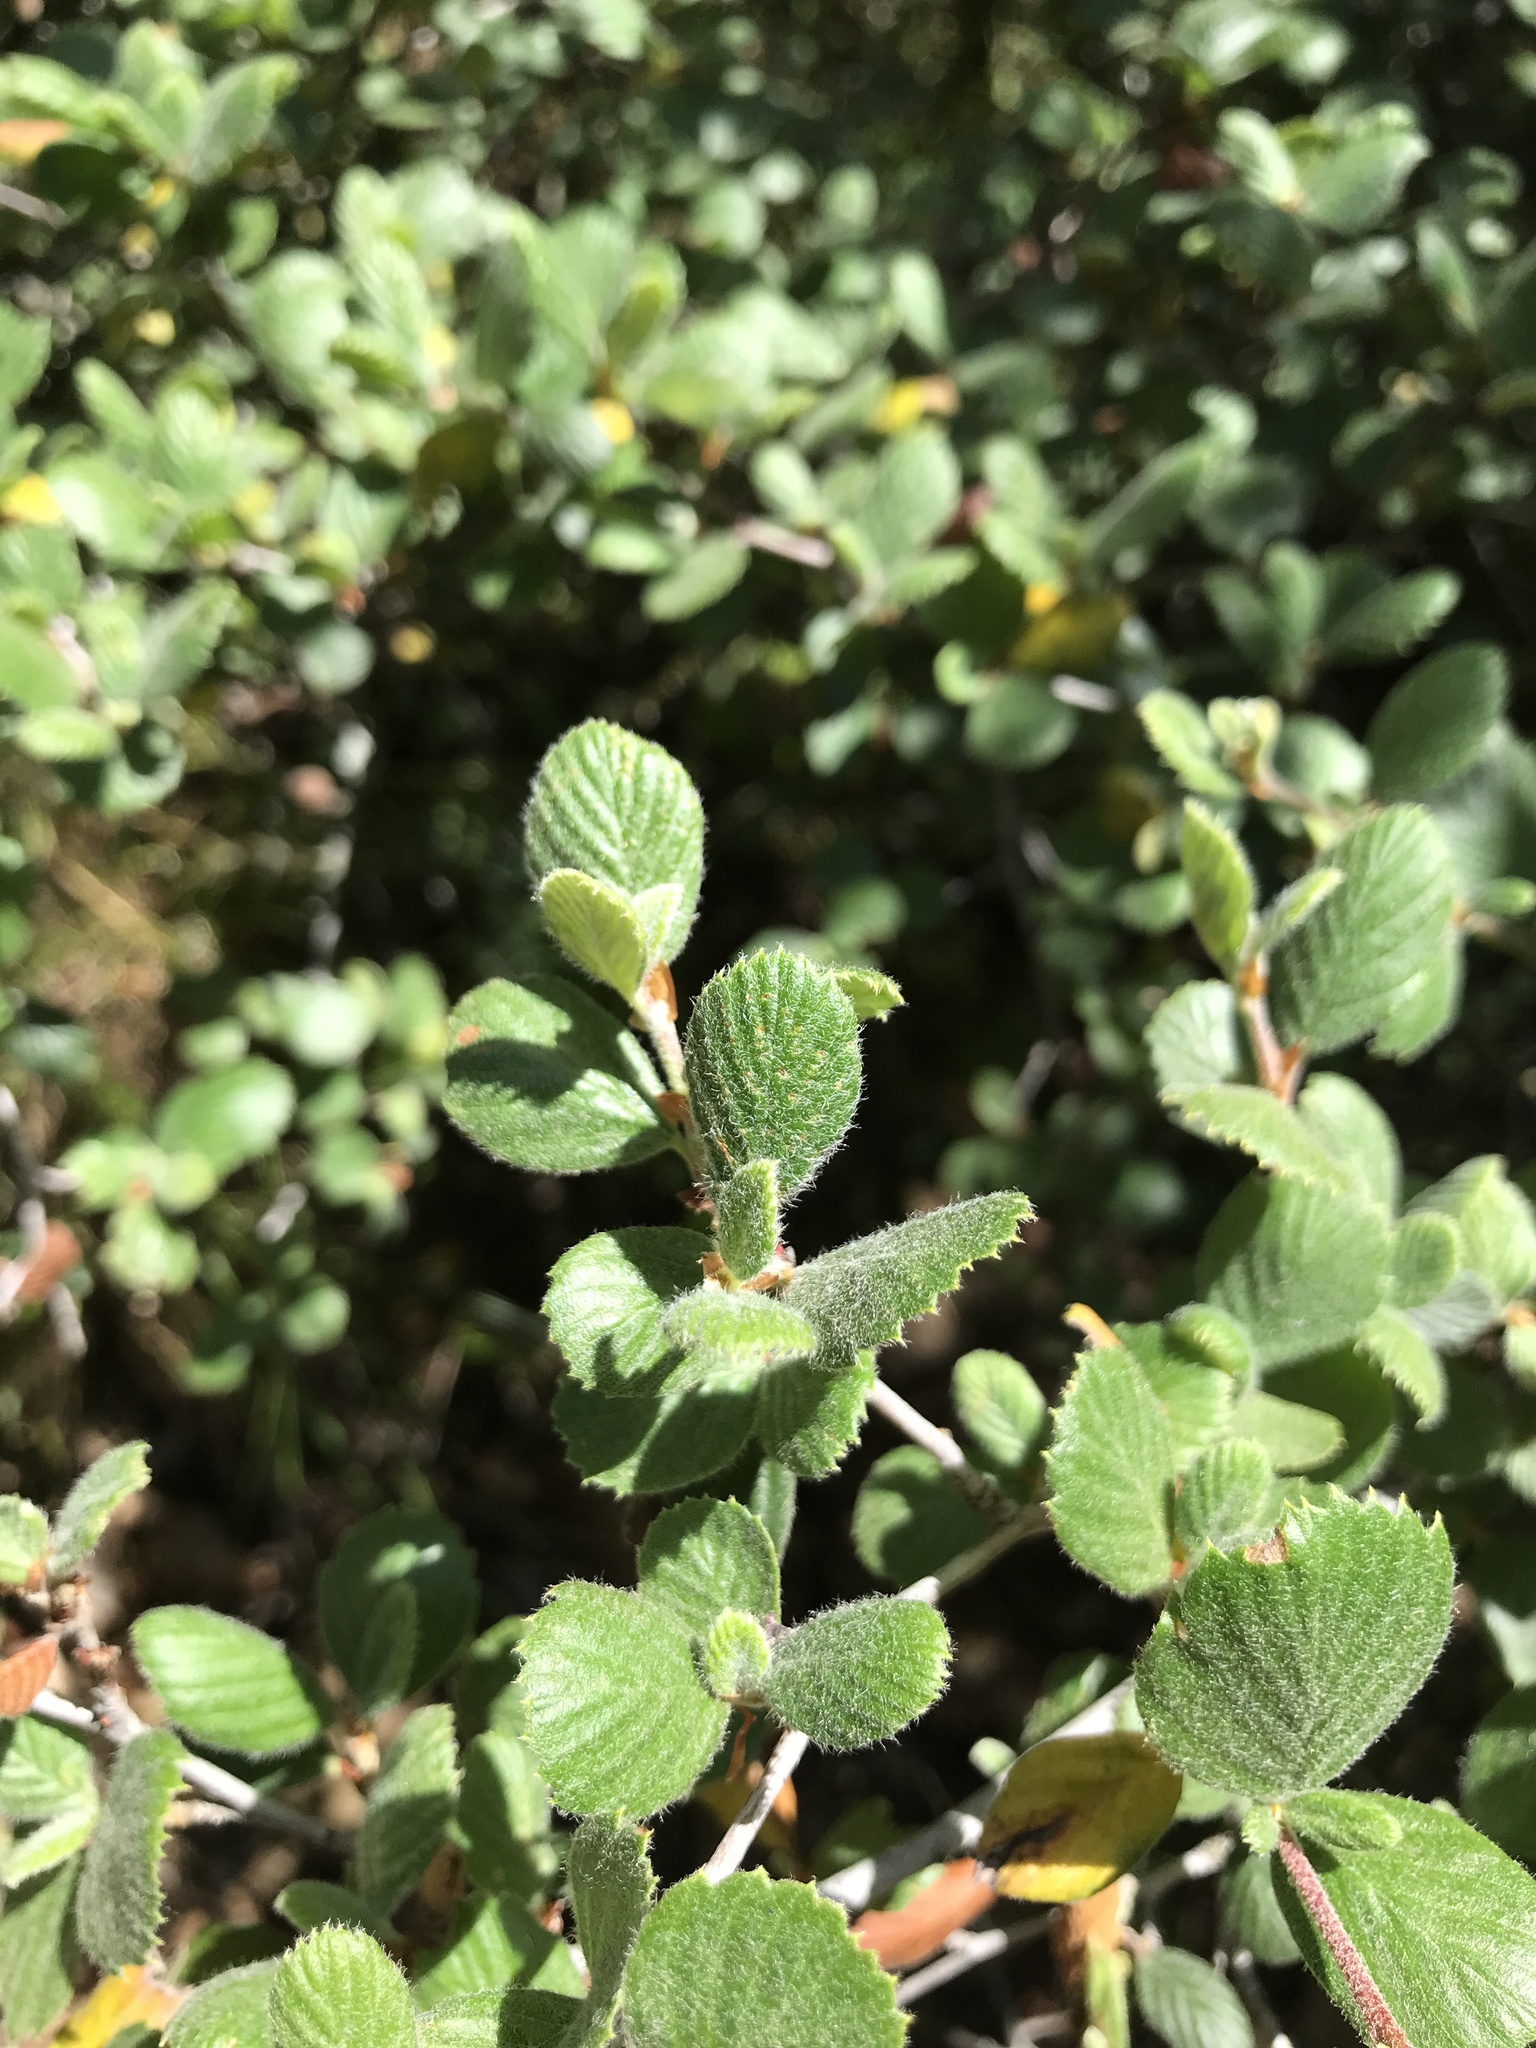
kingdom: Plantae
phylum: Tracheophyta
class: Magnoliopsida
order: Rosales
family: Rosaceae
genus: Cercocarpus
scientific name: Cercocarpus betuloides
